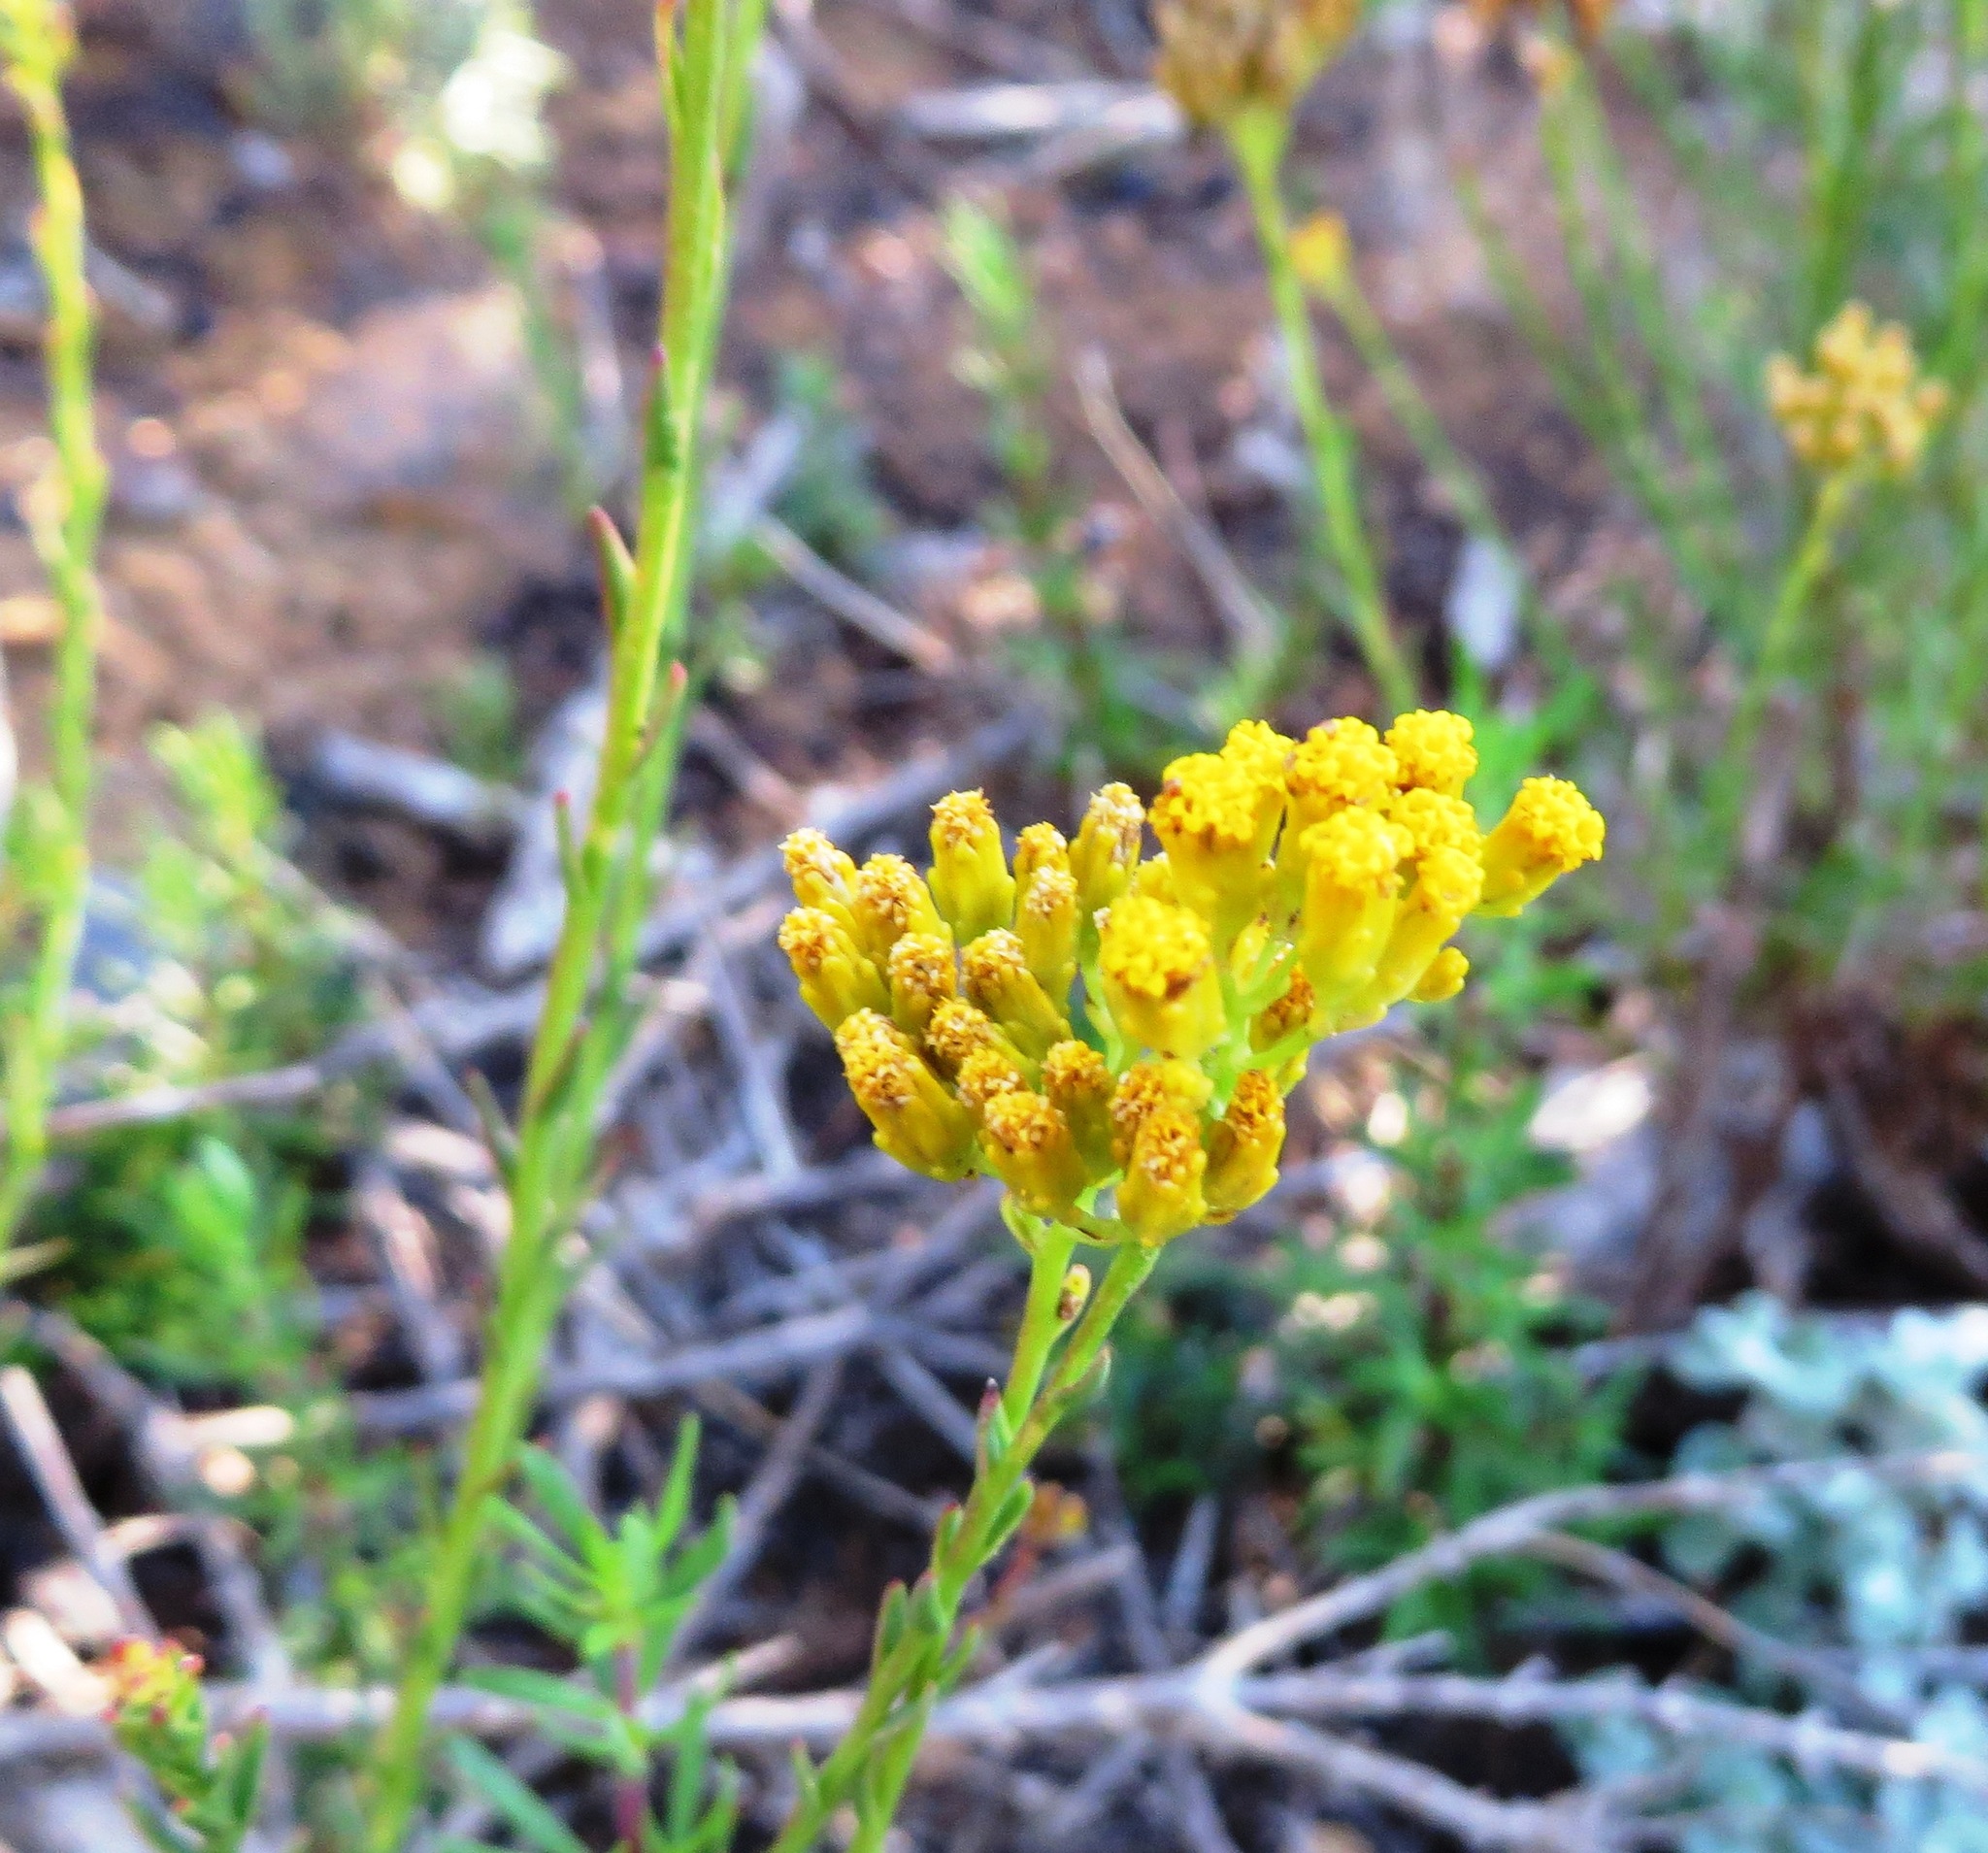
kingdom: Plantae
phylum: Tracheophyta
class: Magnoliopsida
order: Asterales
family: Asteraceae
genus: Athanasia
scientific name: Athanasia juncea
